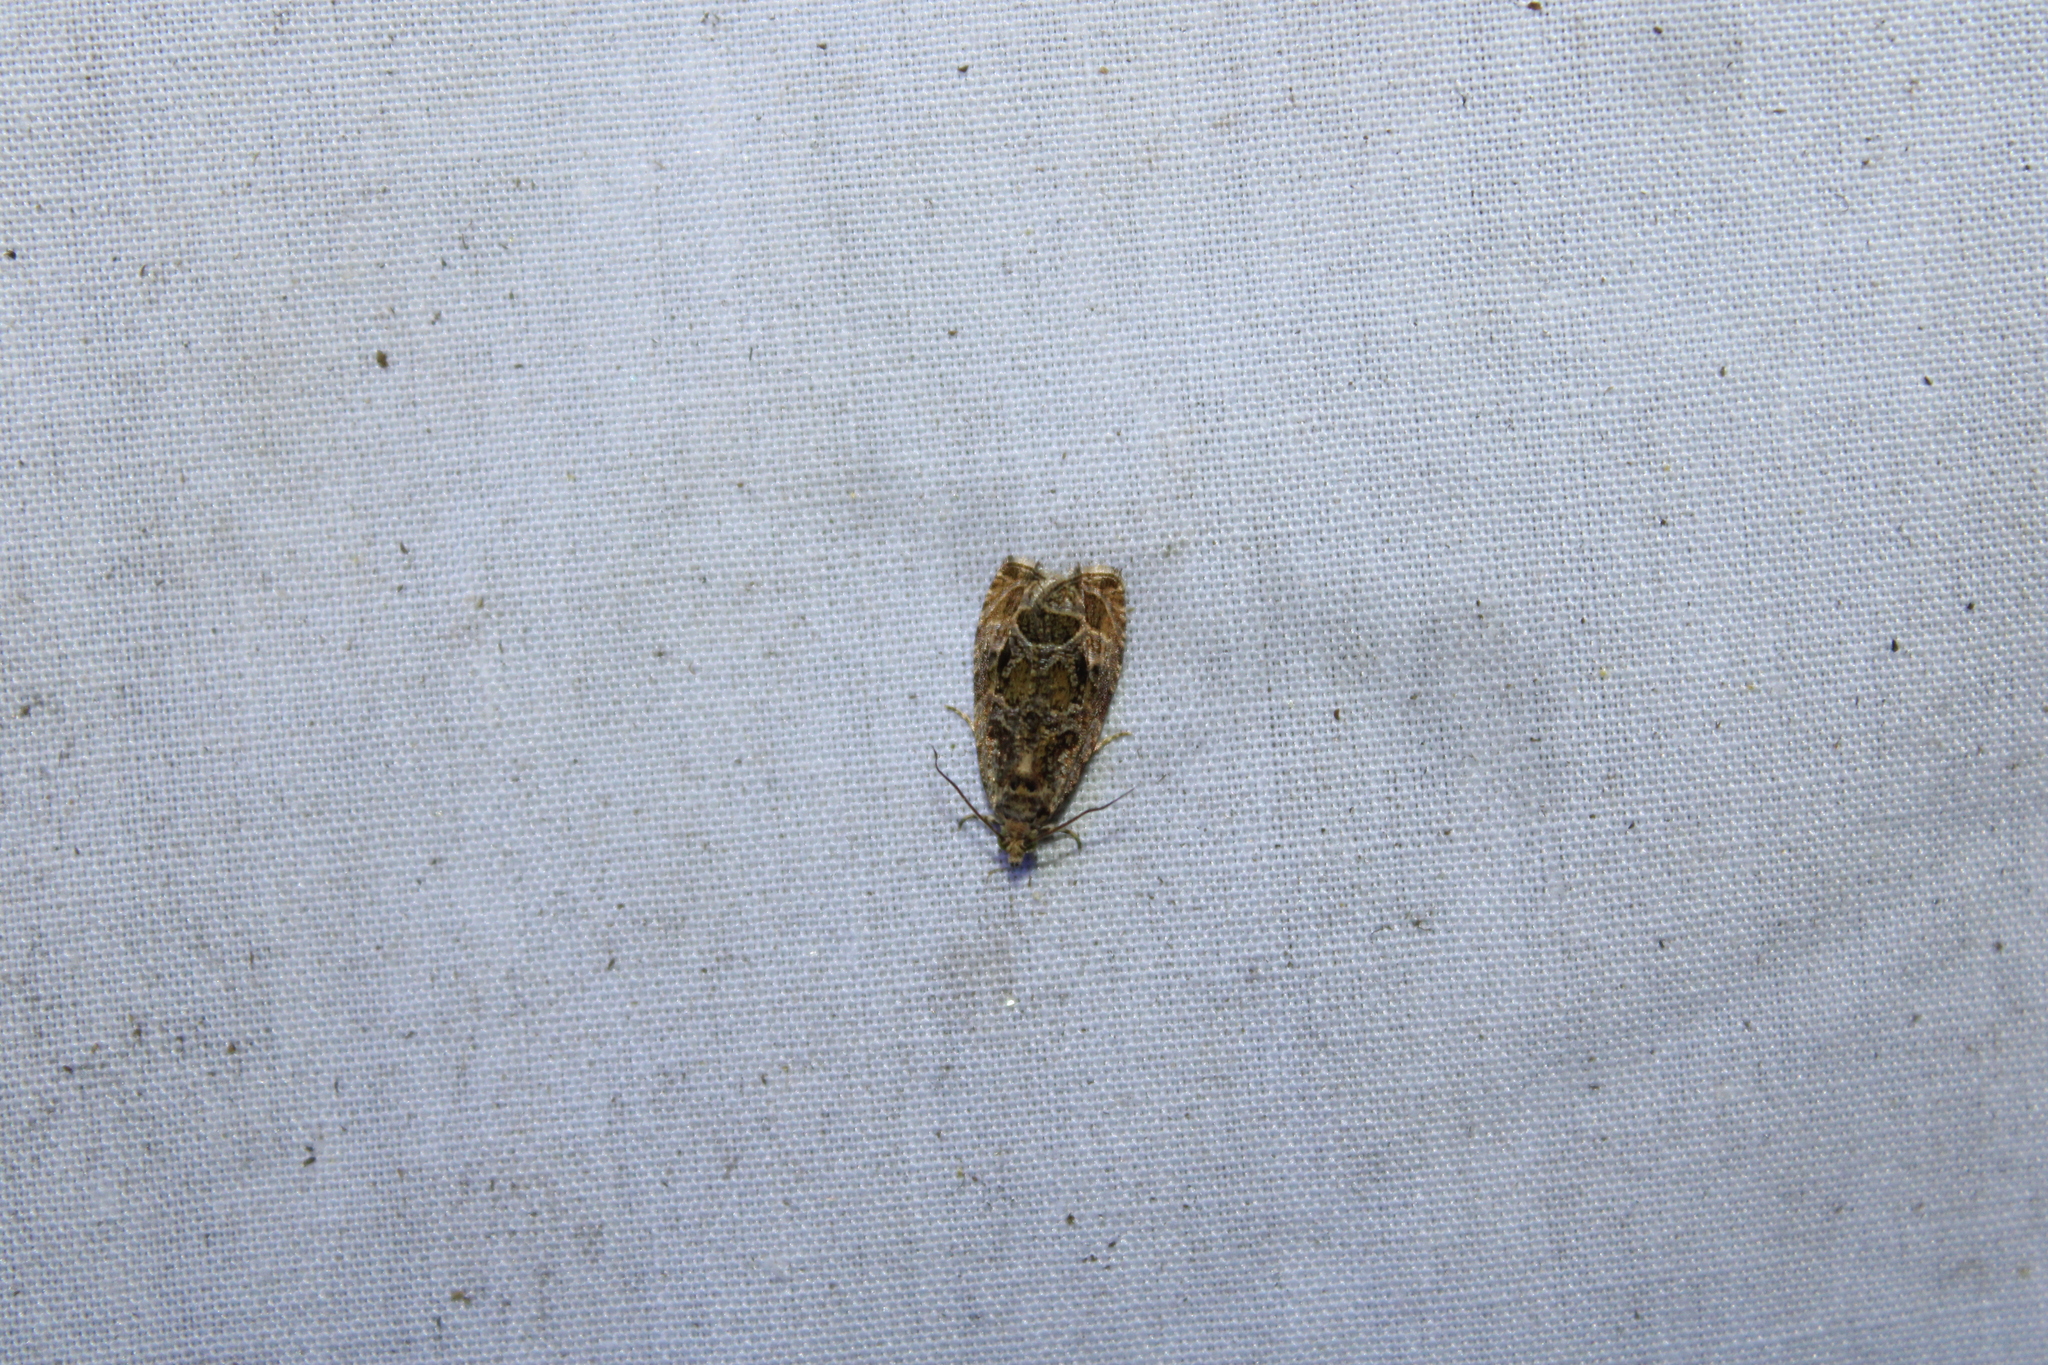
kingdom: Animalia
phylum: Arthropoda
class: Insecta
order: Lepidoptera
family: Tortricidae
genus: Olethreutes
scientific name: Olethreutes permundana
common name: Raspberry leafroller moth
